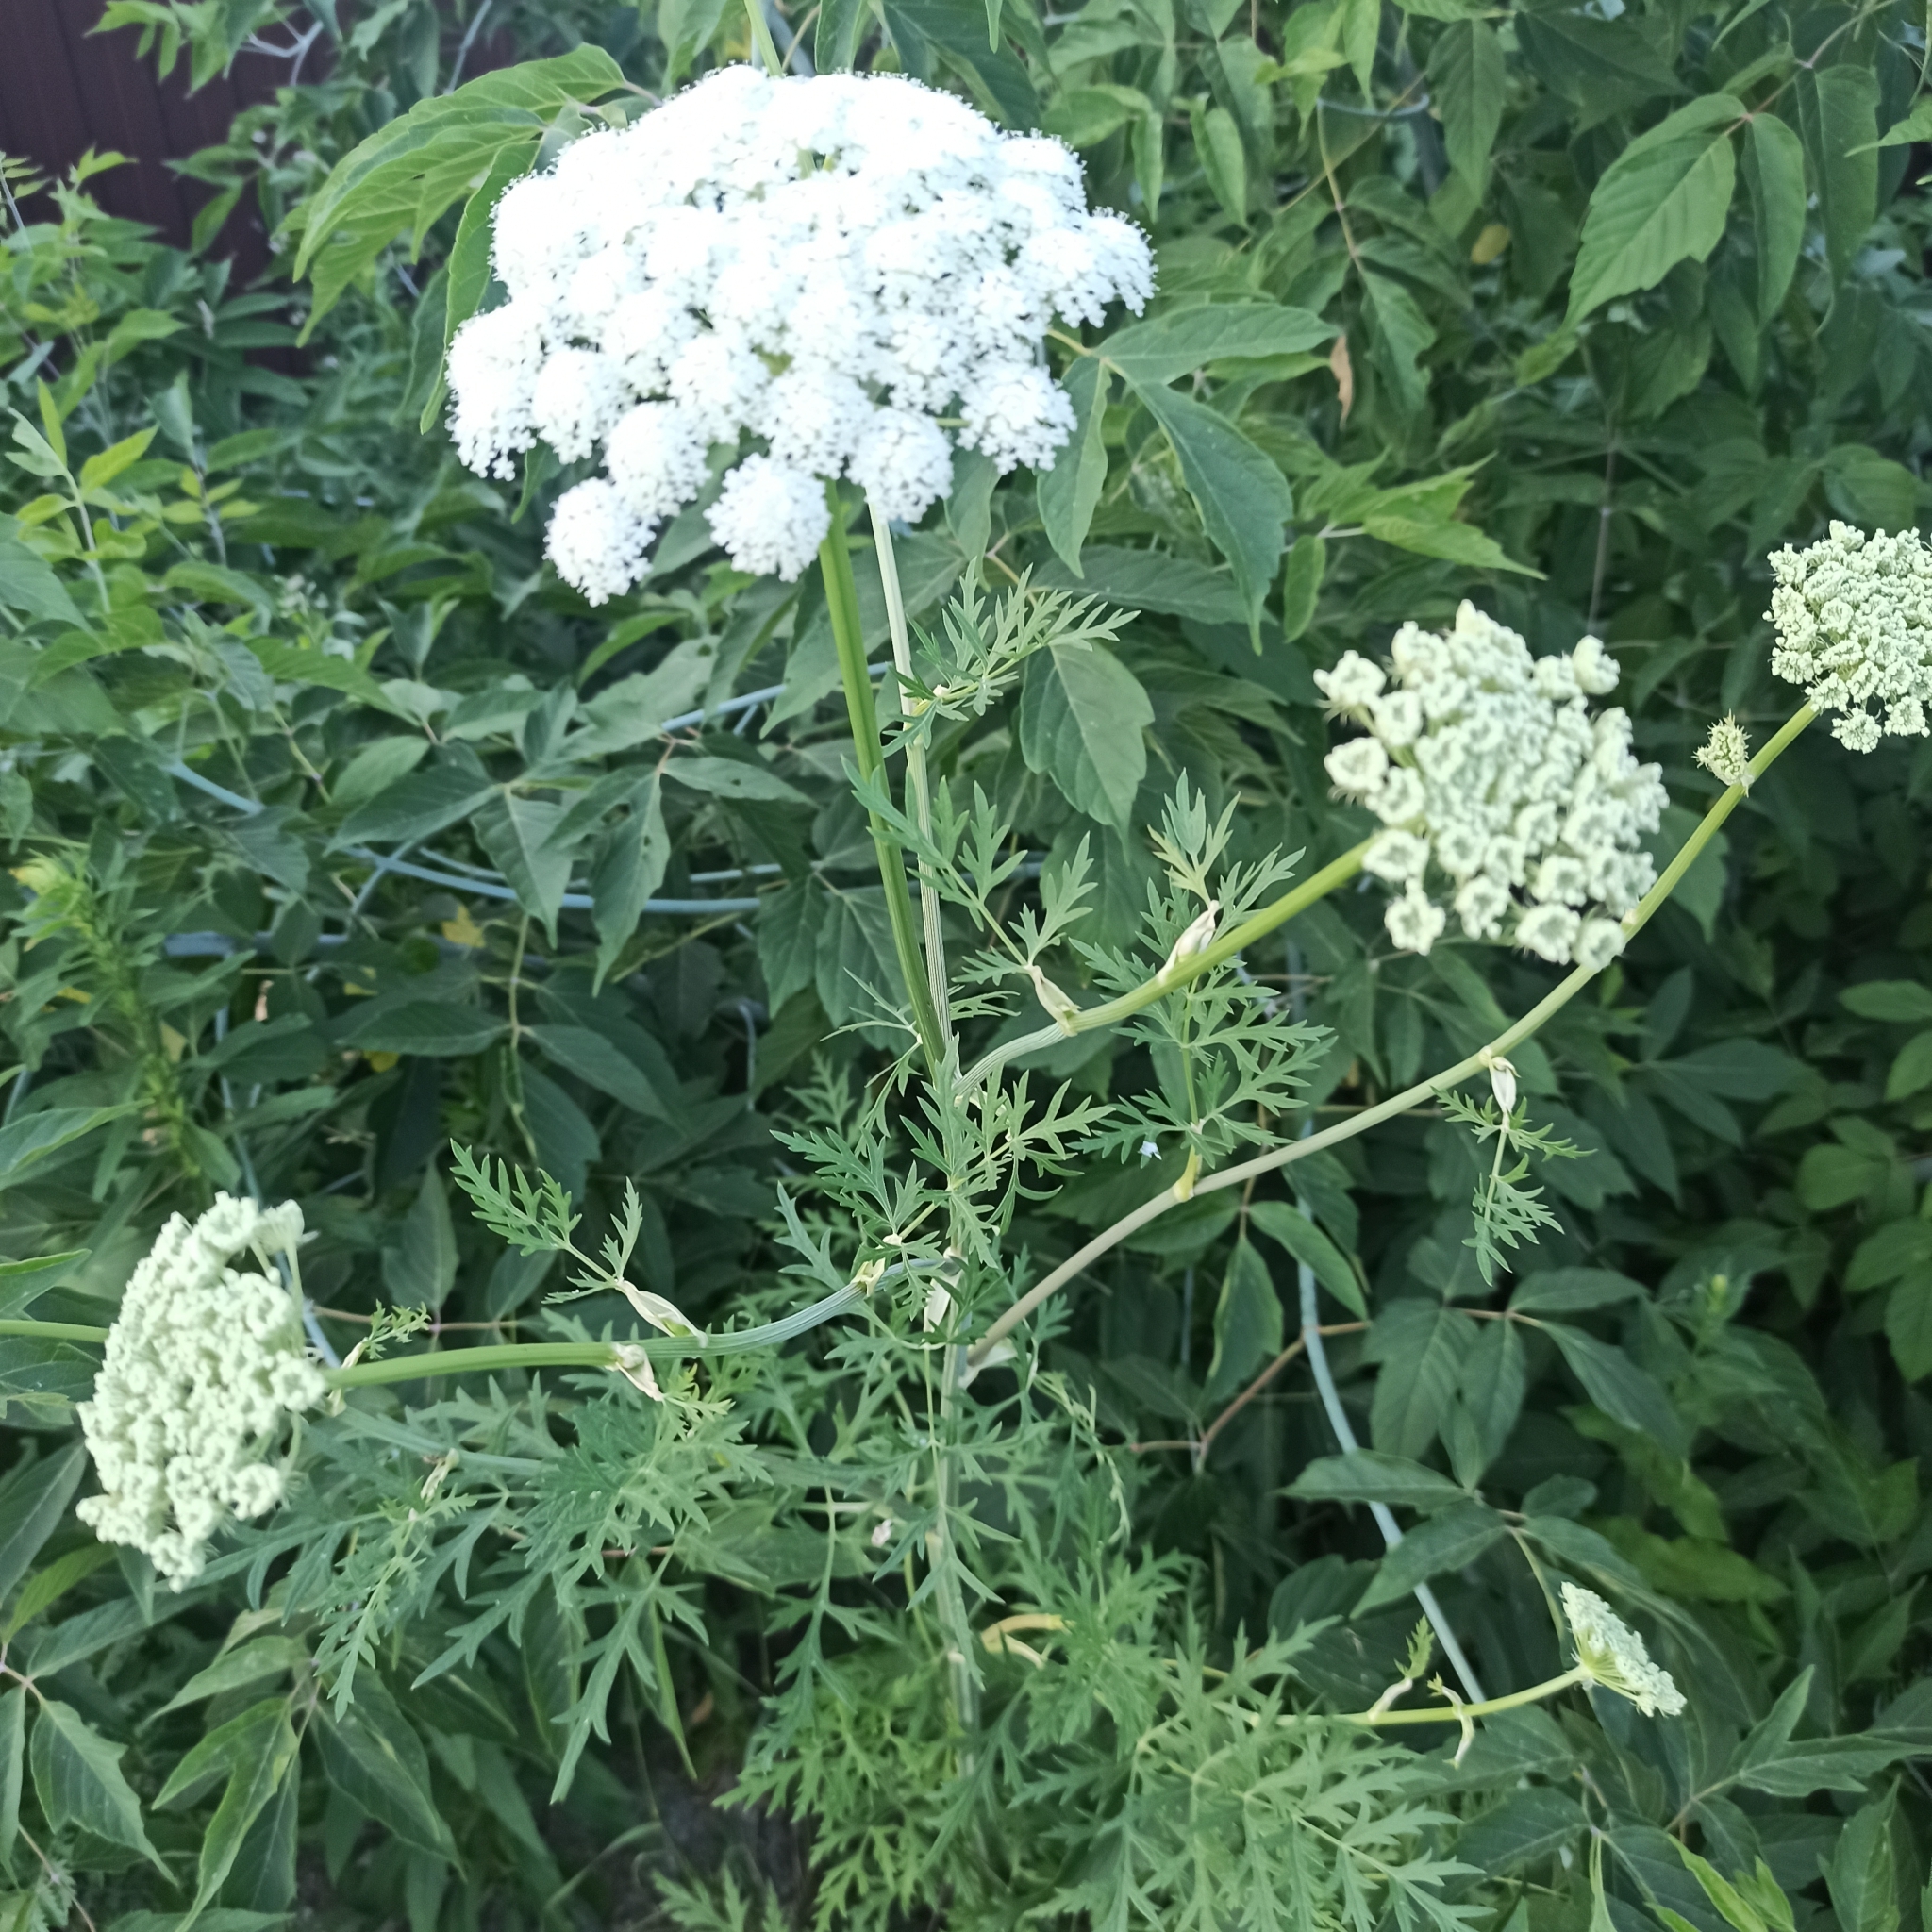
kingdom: Plantae
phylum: Tracheophyta
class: Magnoliopsida
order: Apiales
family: Apiaceae
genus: Seseli
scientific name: Seseli libanotis
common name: Mooncarrot
